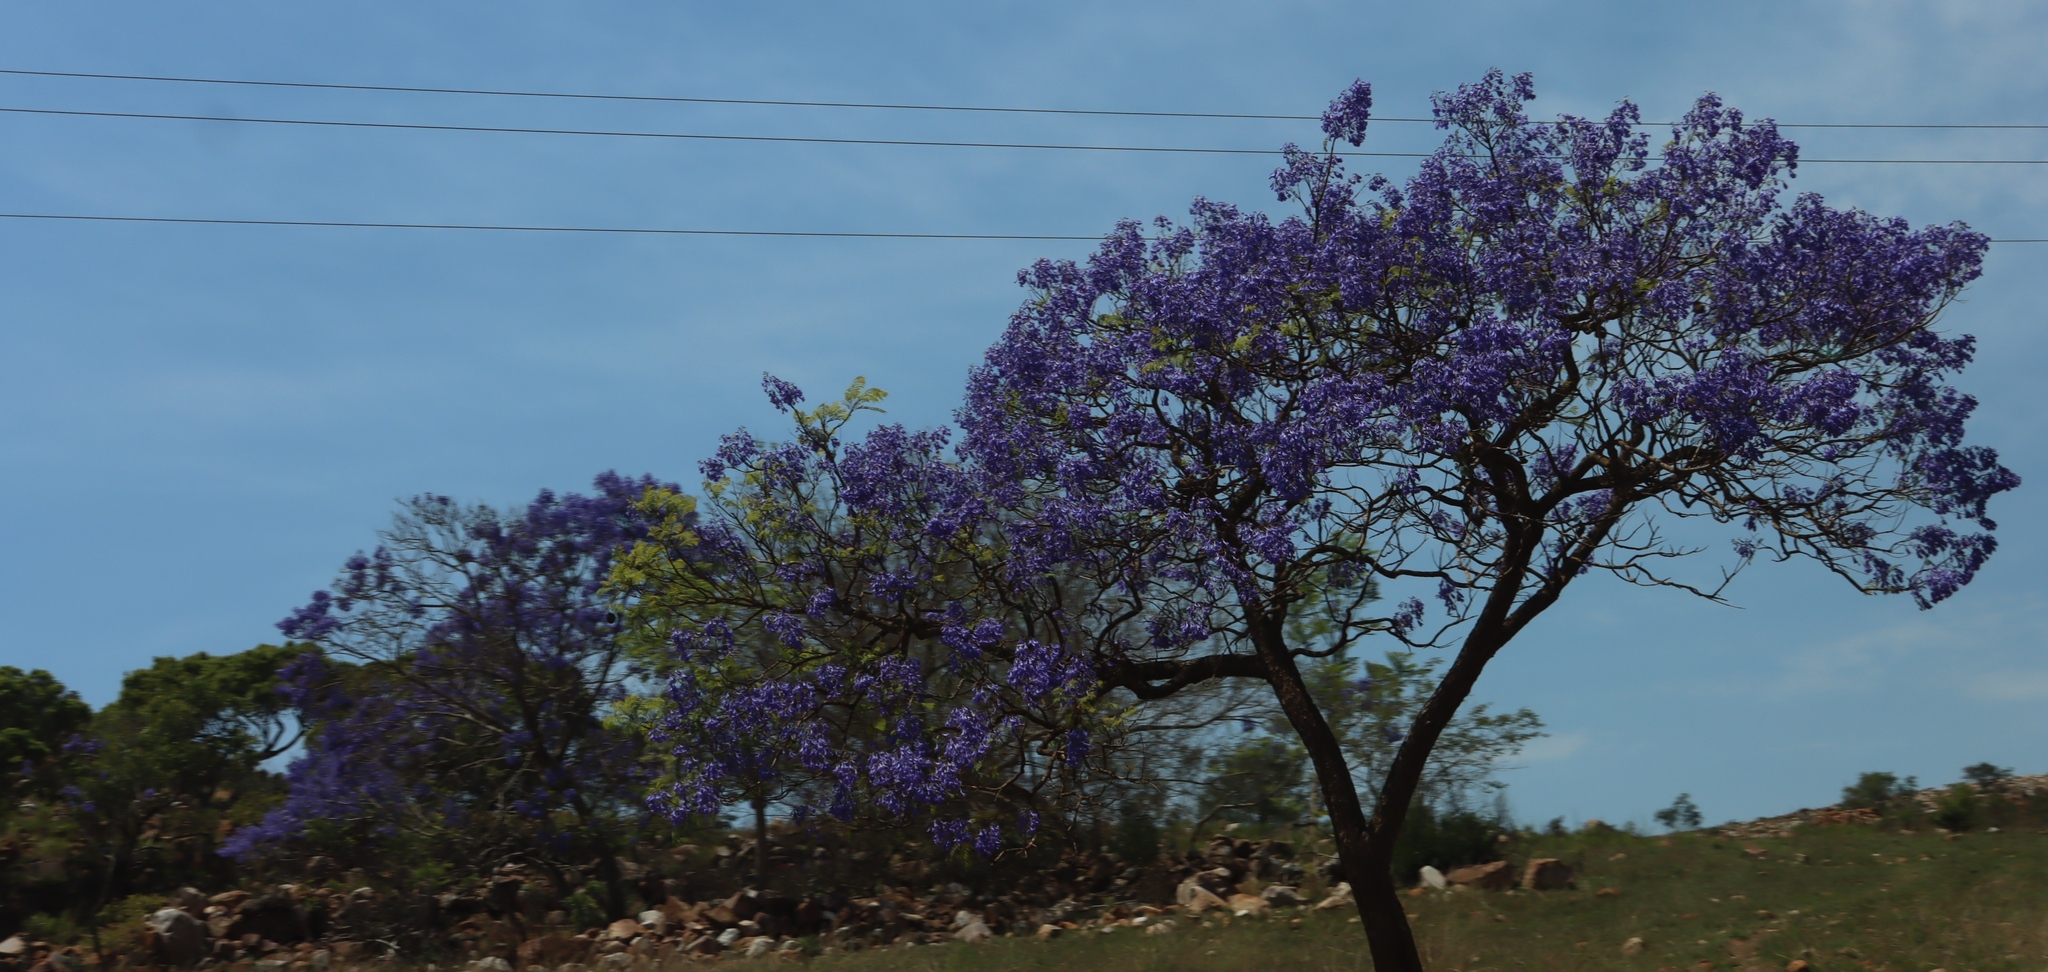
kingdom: Plantae
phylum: Tracheophyta
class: Magnoliopsida
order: Lamiales
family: Bignoniaceae
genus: Jacaranda
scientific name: Jacaranda mimosifolia
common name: Black poui
